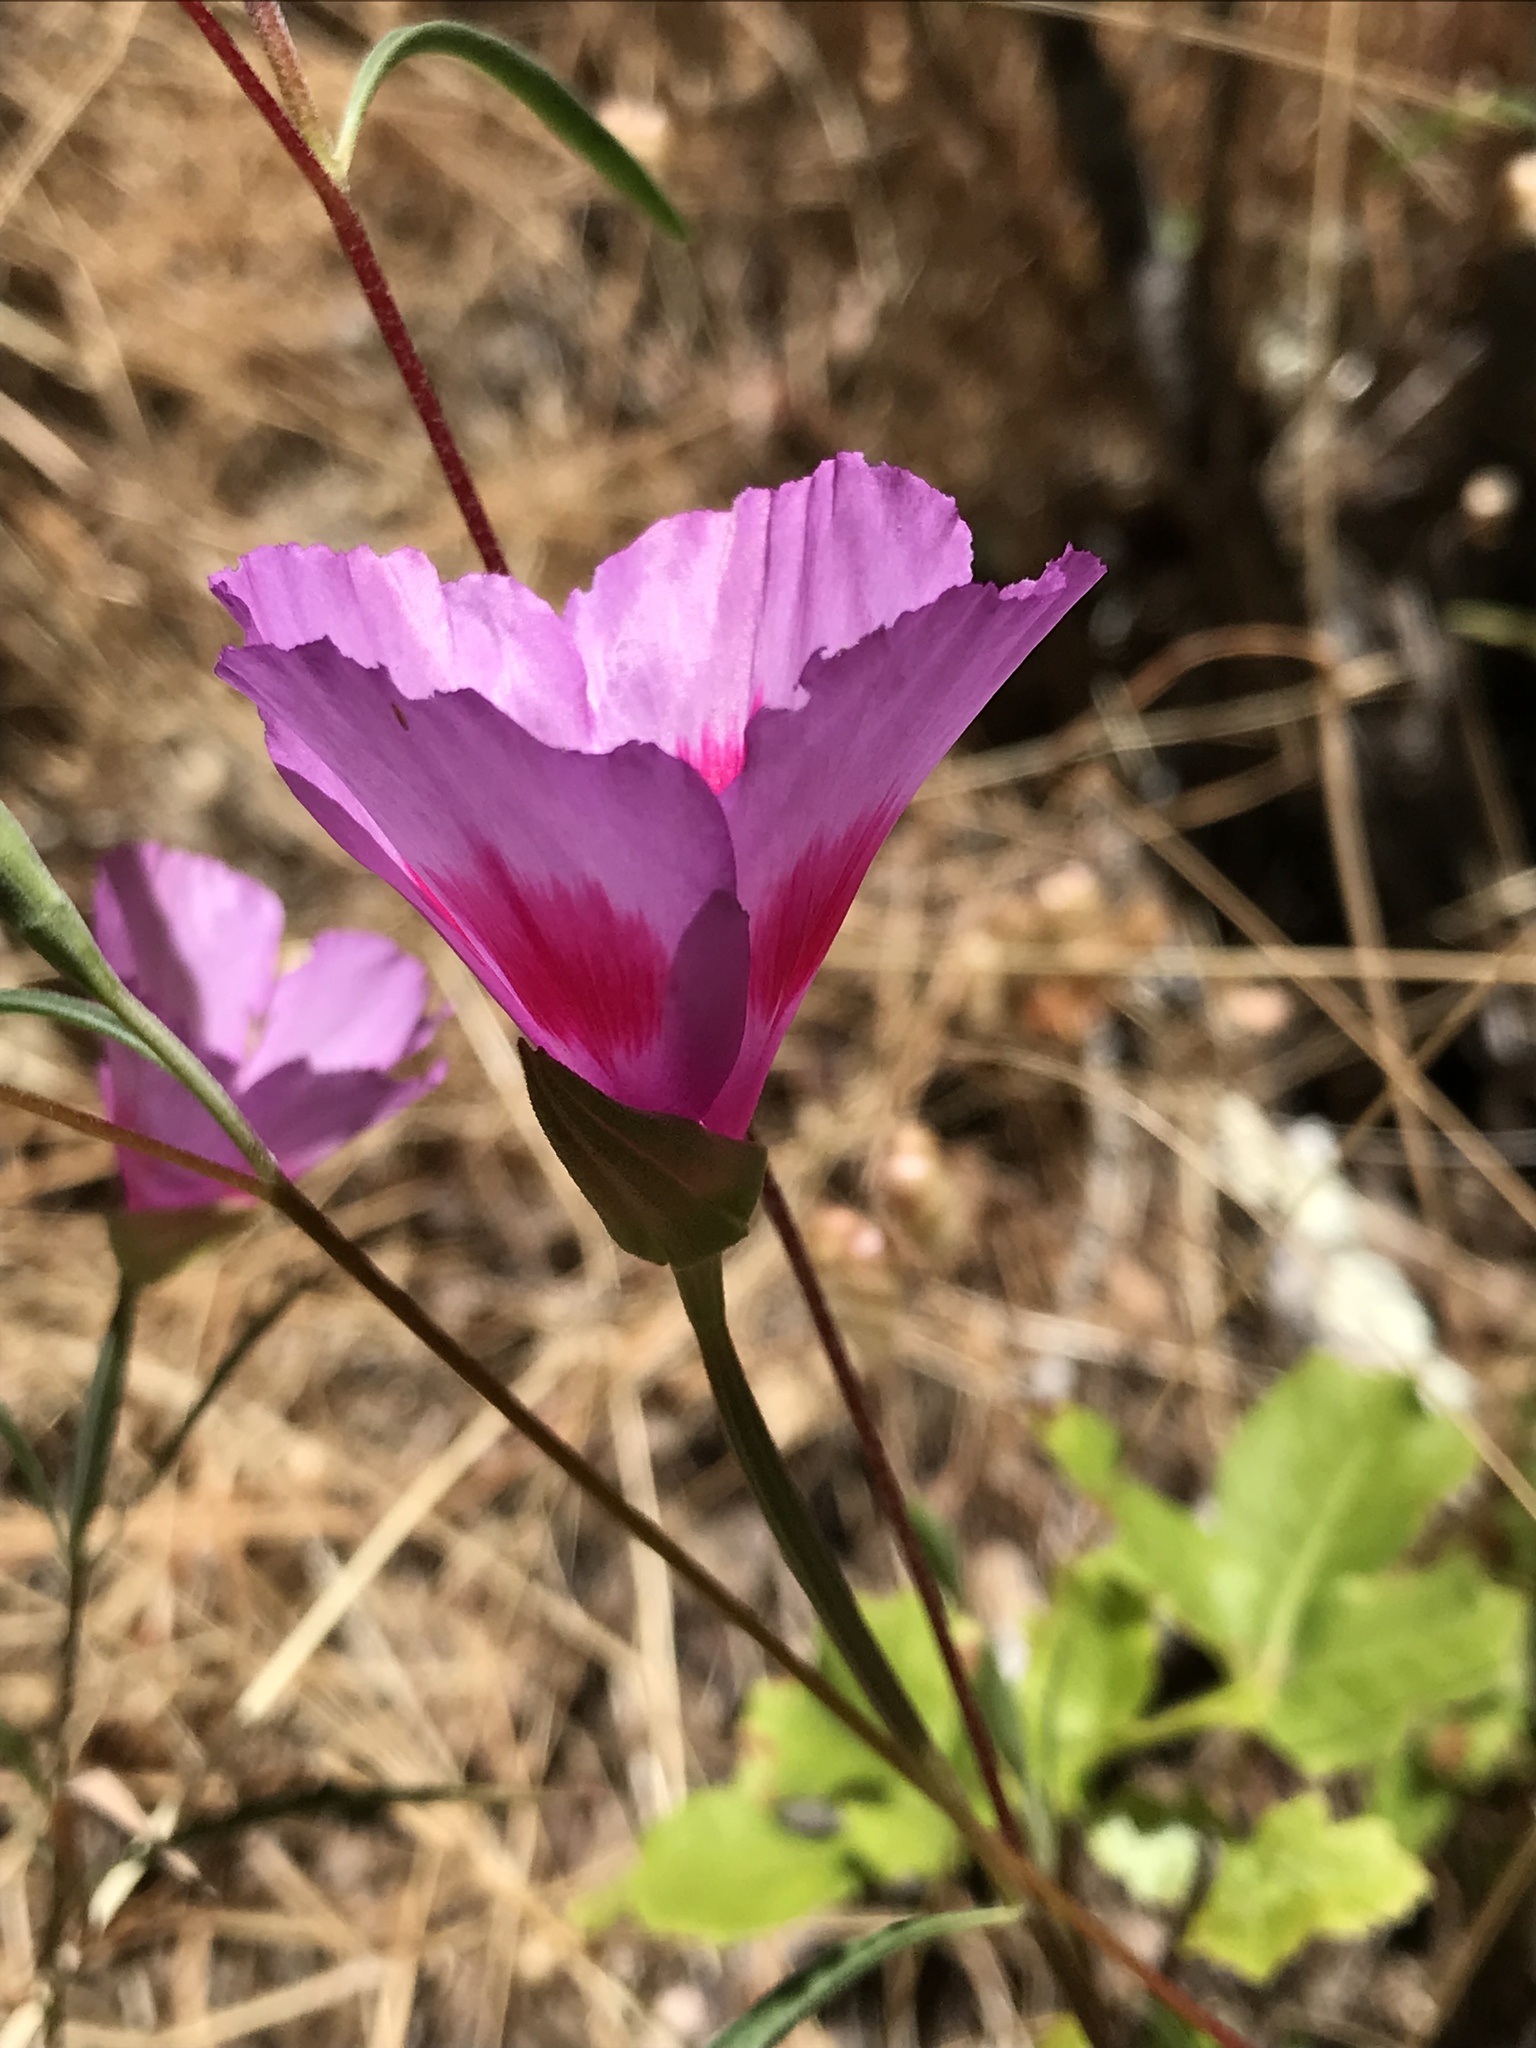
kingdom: Plantae
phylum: Tracheophyta
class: Magnoliopsida
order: Myrtales
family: Onagraceae
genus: Clarkia
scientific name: Clarkia amoena
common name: Godetia
